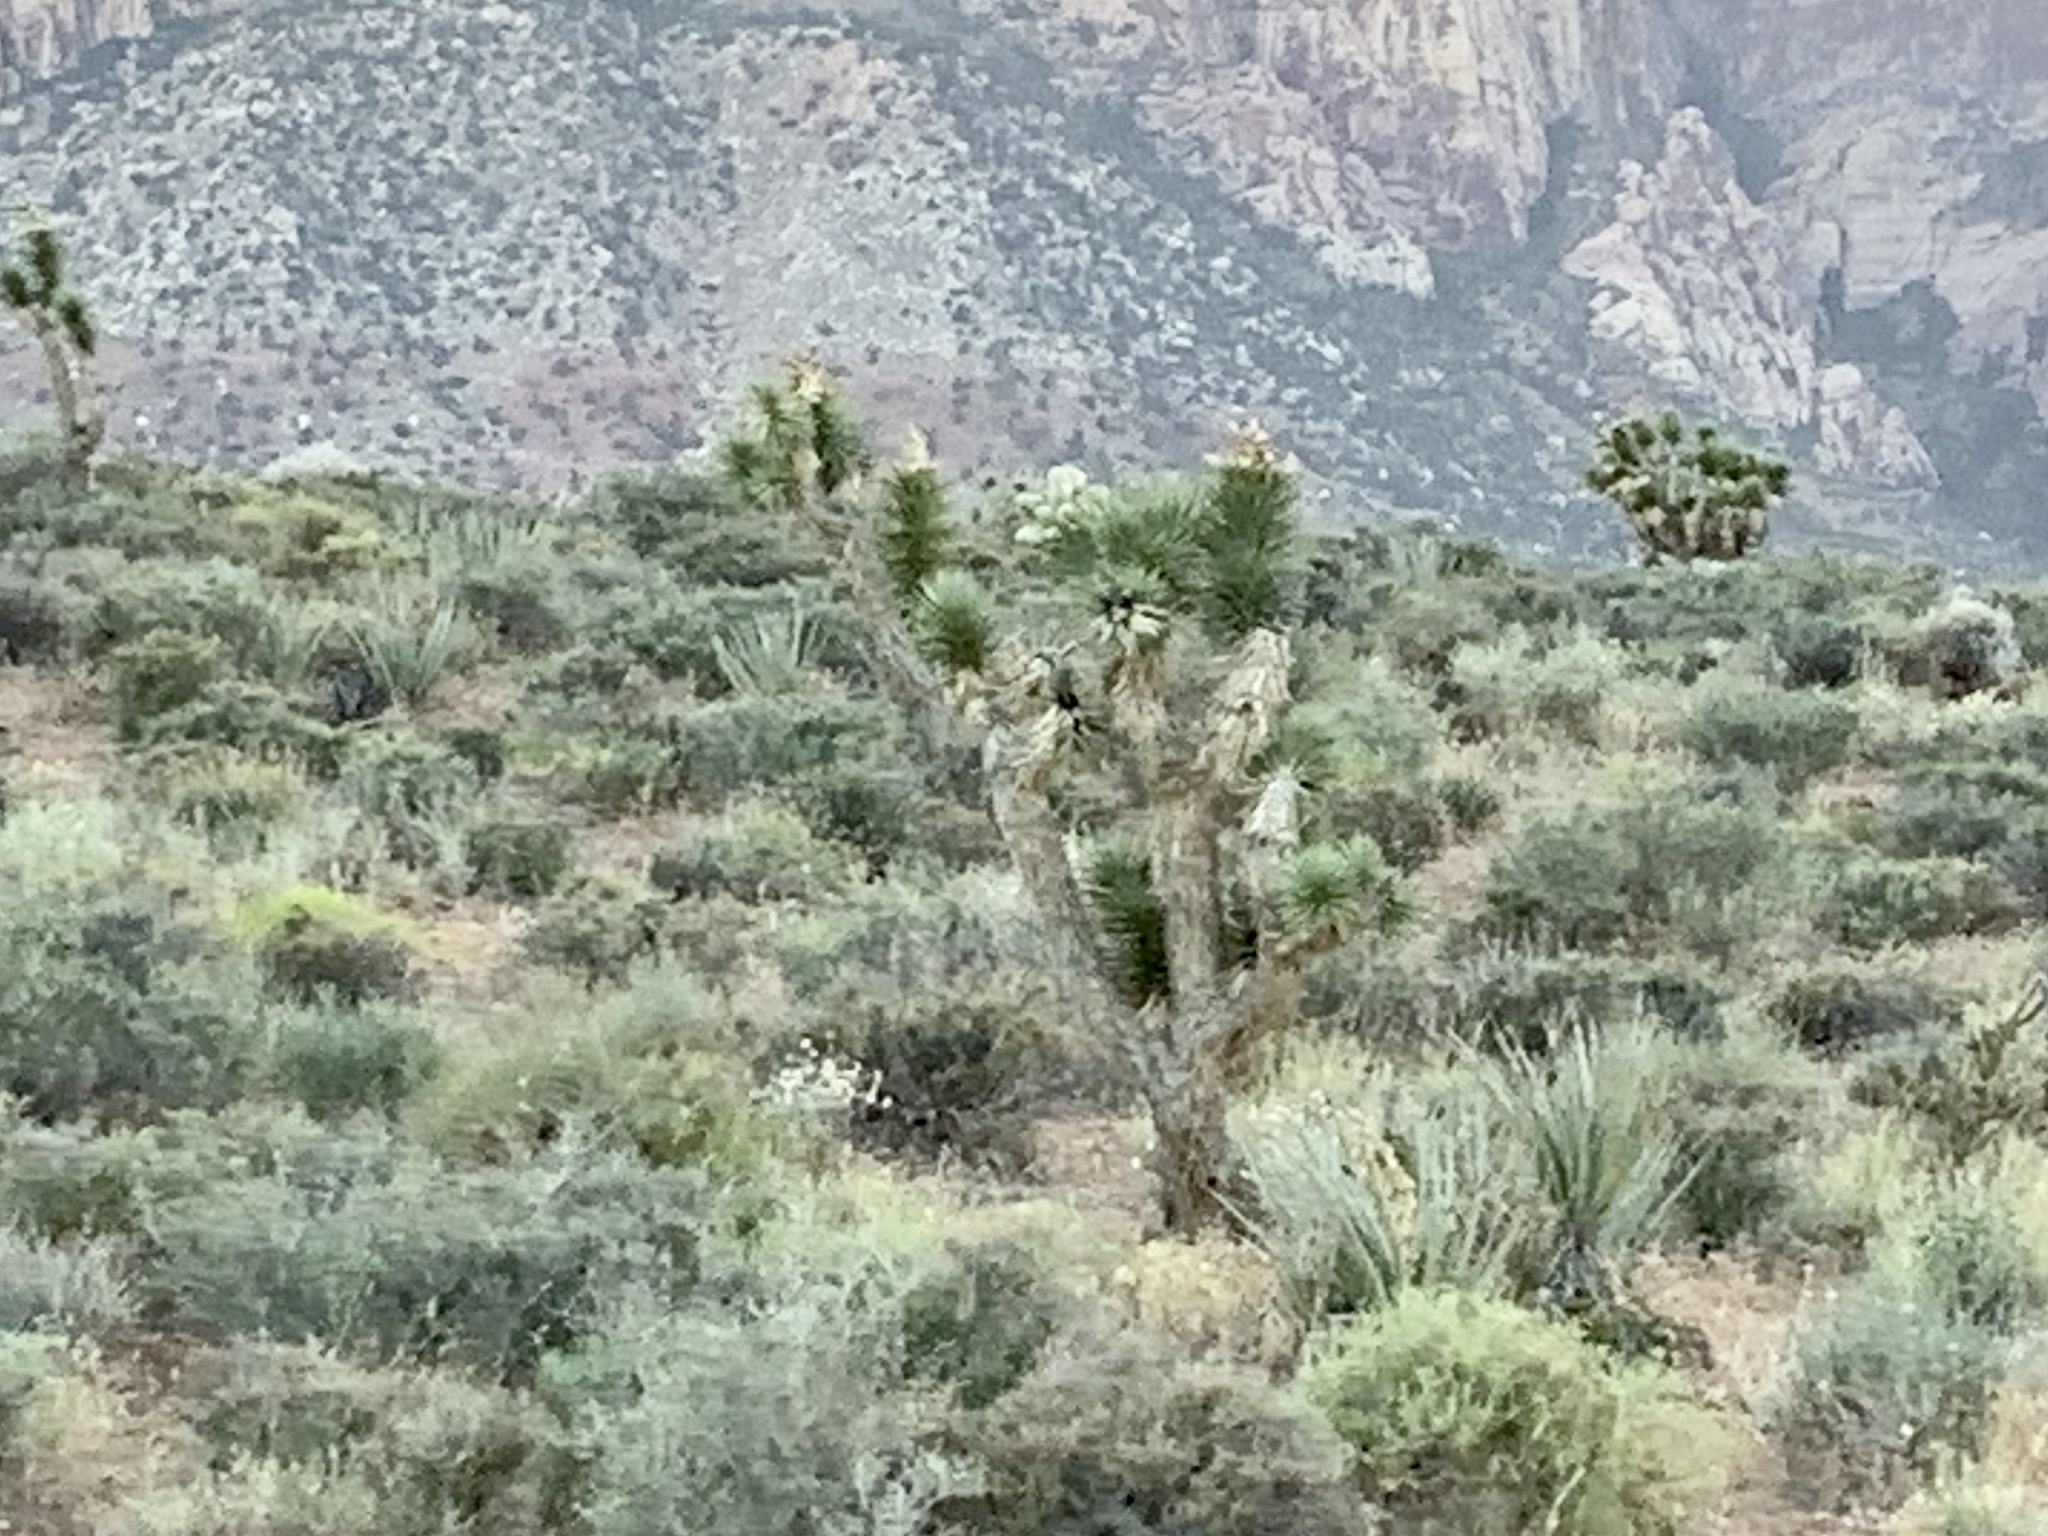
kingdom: Plantae
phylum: Tracheophyta
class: Liliopsida
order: Asparagales
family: Asparagaceae
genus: Yucca
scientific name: Yucca brevifolia
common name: Joshua tree
